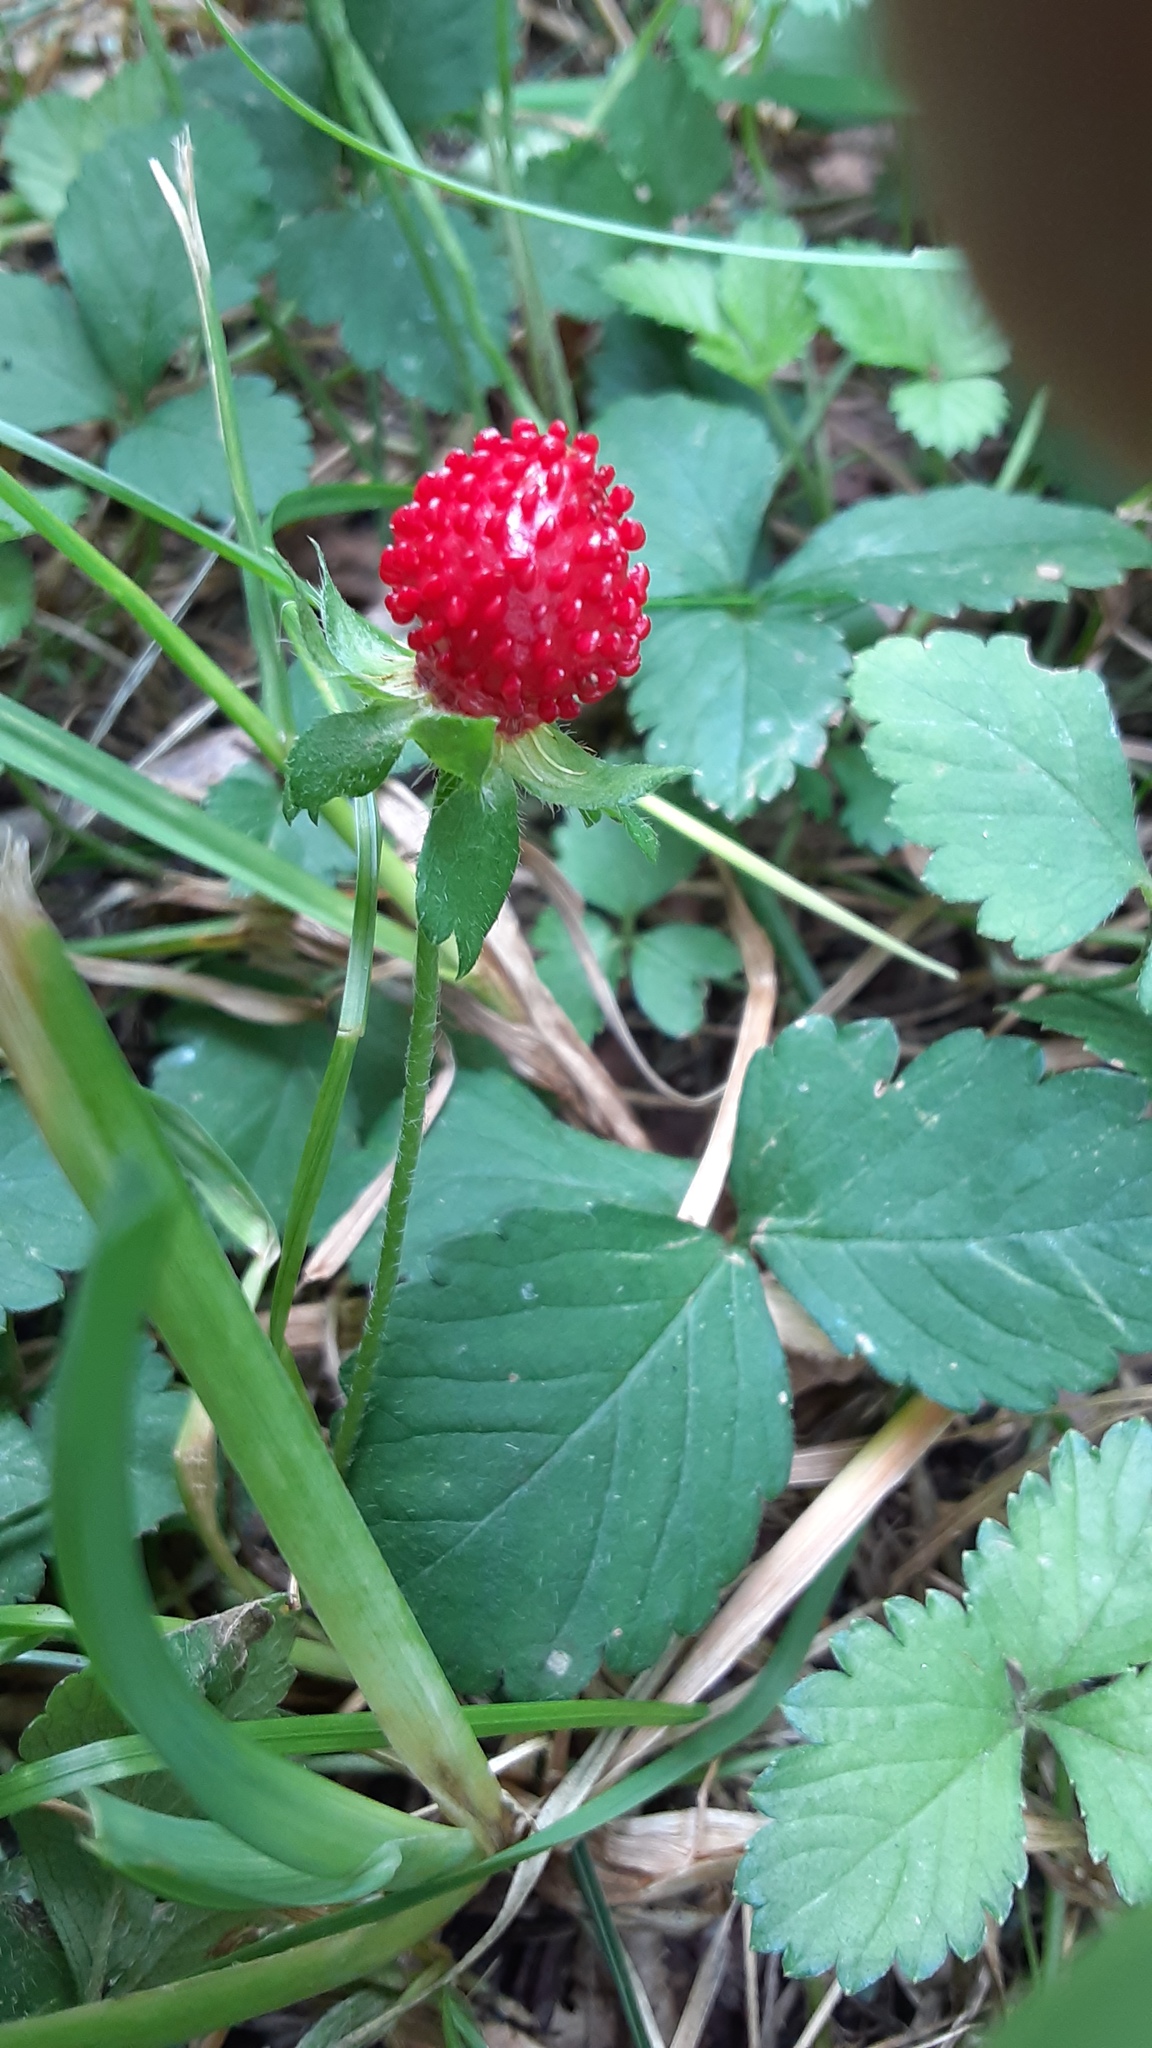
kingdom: Plantae
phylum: Tracheophyta
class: Magnoliopsida
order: Rosales
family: Rosaceae
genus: Potentilla
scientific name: Potentilla indica
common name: Yellow-flowered strawberry
